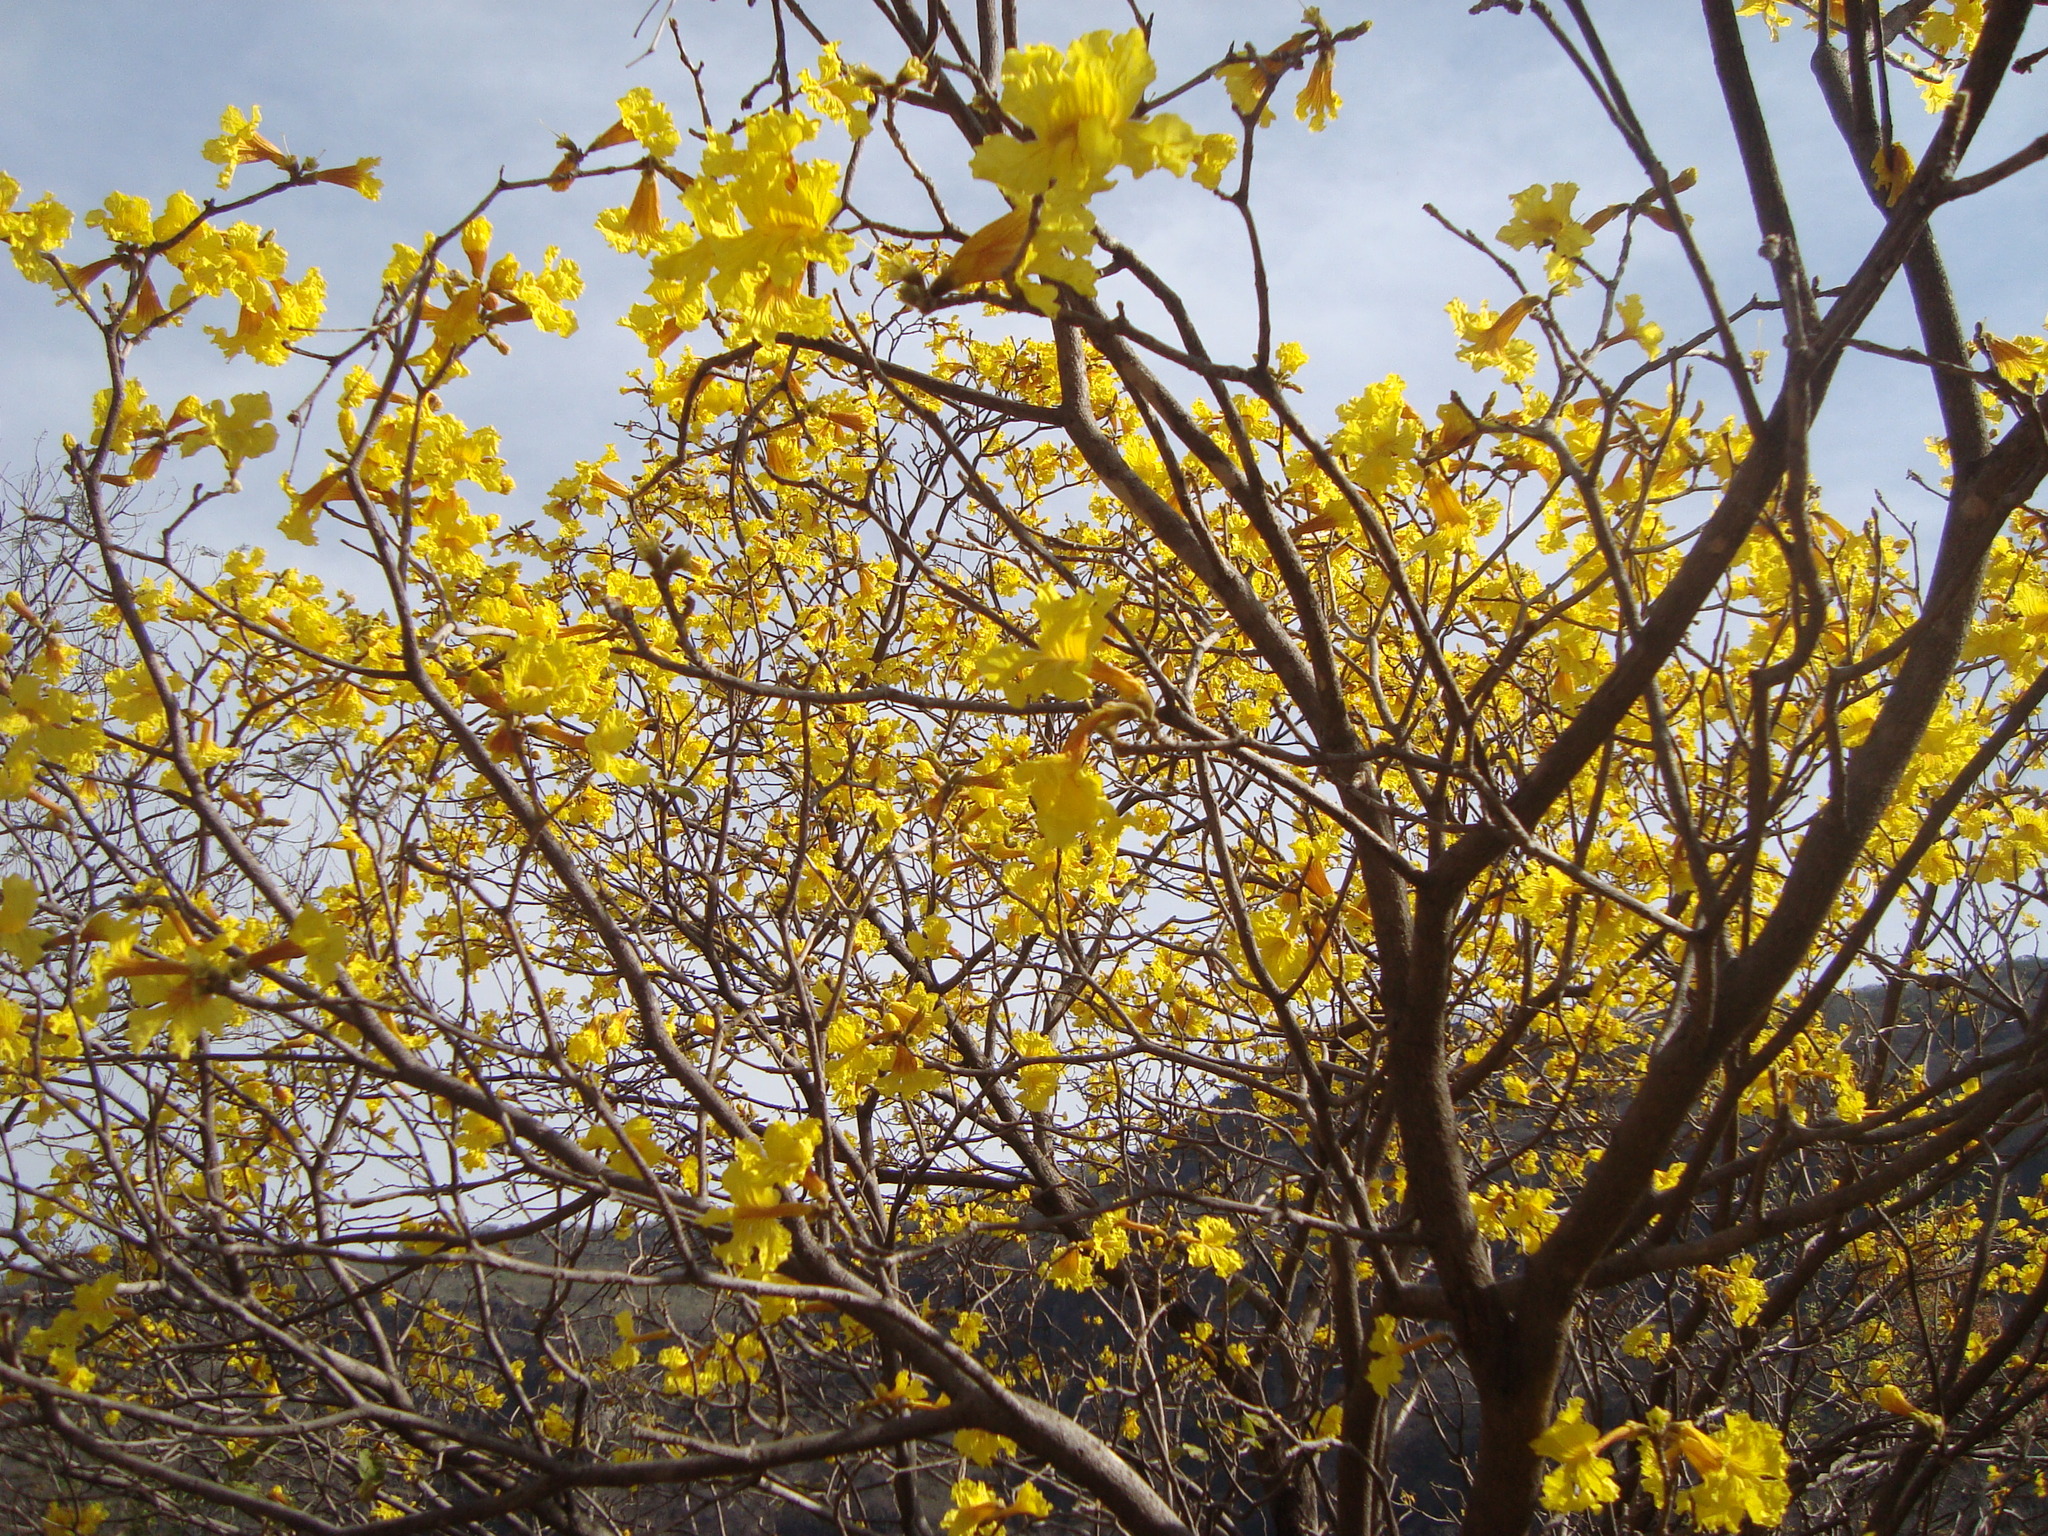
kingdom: Plantae
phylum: Tracheophyta
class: Magnoliopsida
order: Lamiales
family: Bignoniaceae
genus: Handroanthus
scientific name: Handroanthus chrysanthus
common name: Trumpet trees
